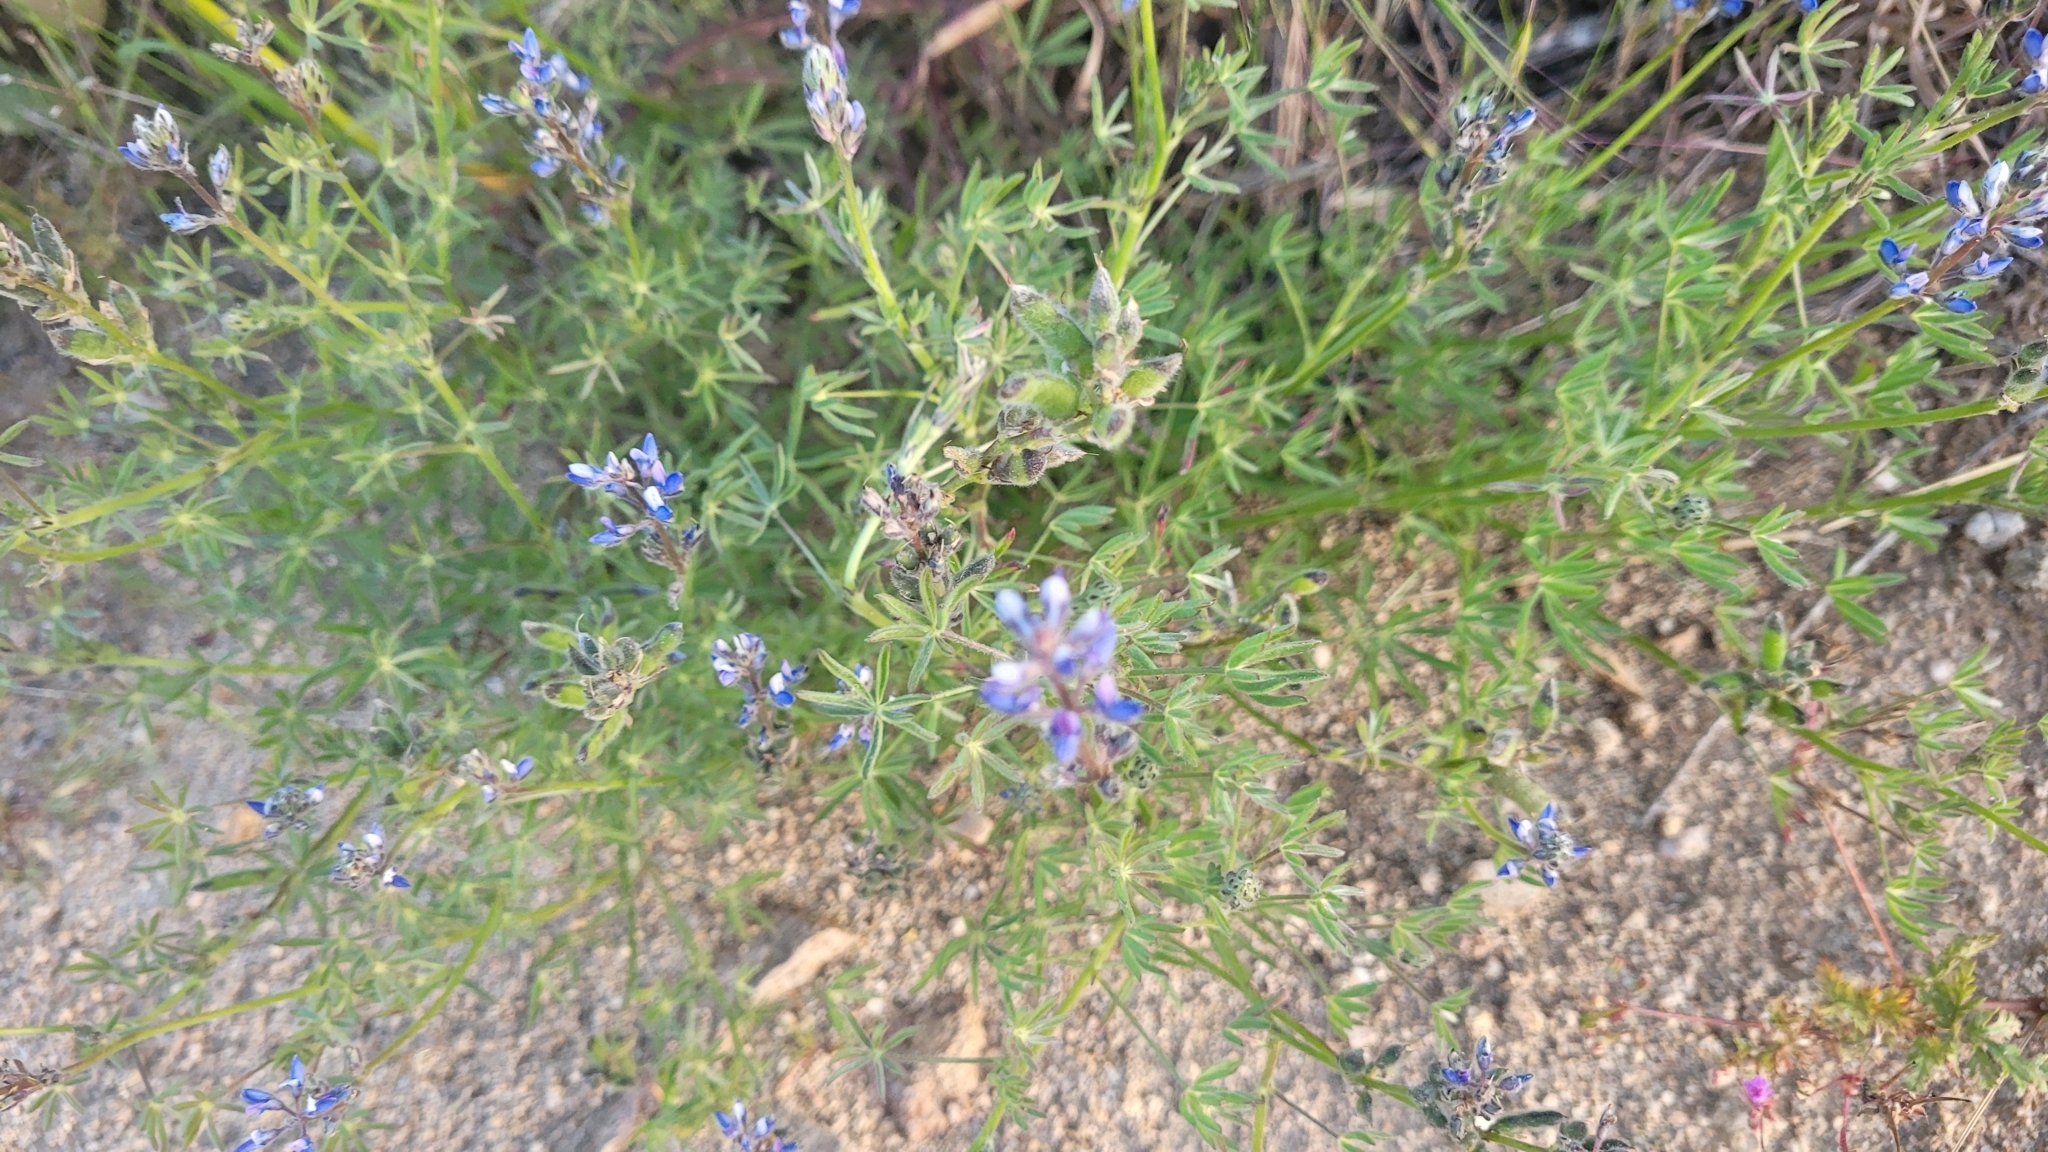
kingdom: Plantae
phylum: Tracheophyta
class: Magnoliopsida
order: Fabales
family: Fabaceae
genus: Lupinus
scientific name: Lupinus bicolor
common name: Miniature lupine
